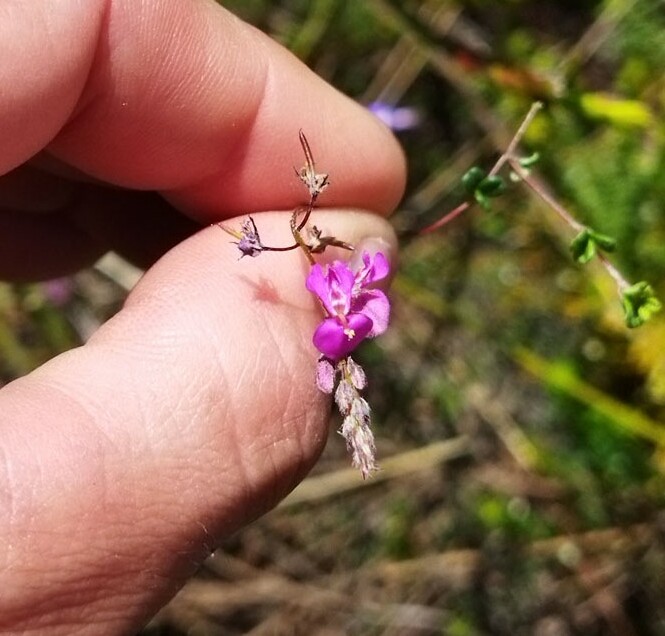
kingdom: Plantae
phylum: Tracheophyta
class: Magnoliopsida
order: Fabales
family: Fabaceae
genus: Indigofera
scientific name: Indigofera
